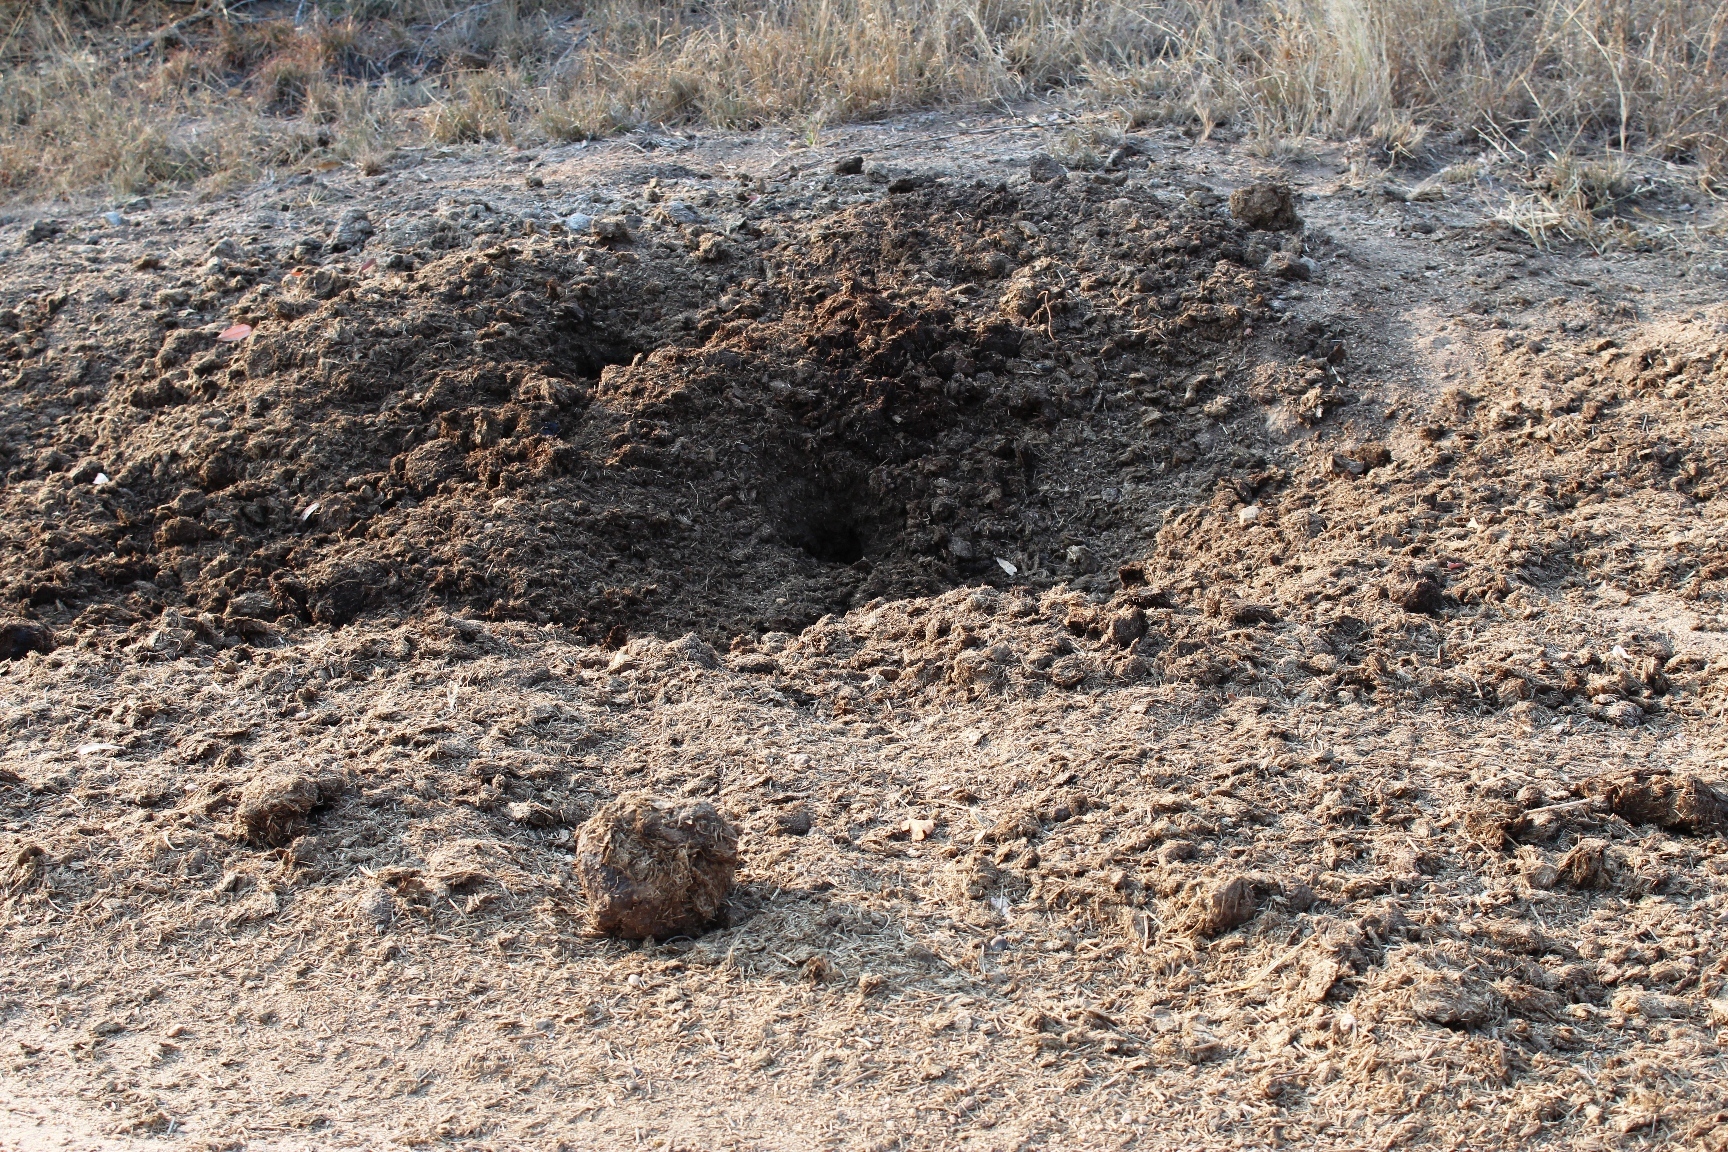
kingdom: Animalia
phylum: Chordata
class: Mammalia
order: Perissodactyla
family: Rhinocerotidae
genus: Ceratotherium
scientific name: Ceratotherium simum
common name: White rhinoceros
